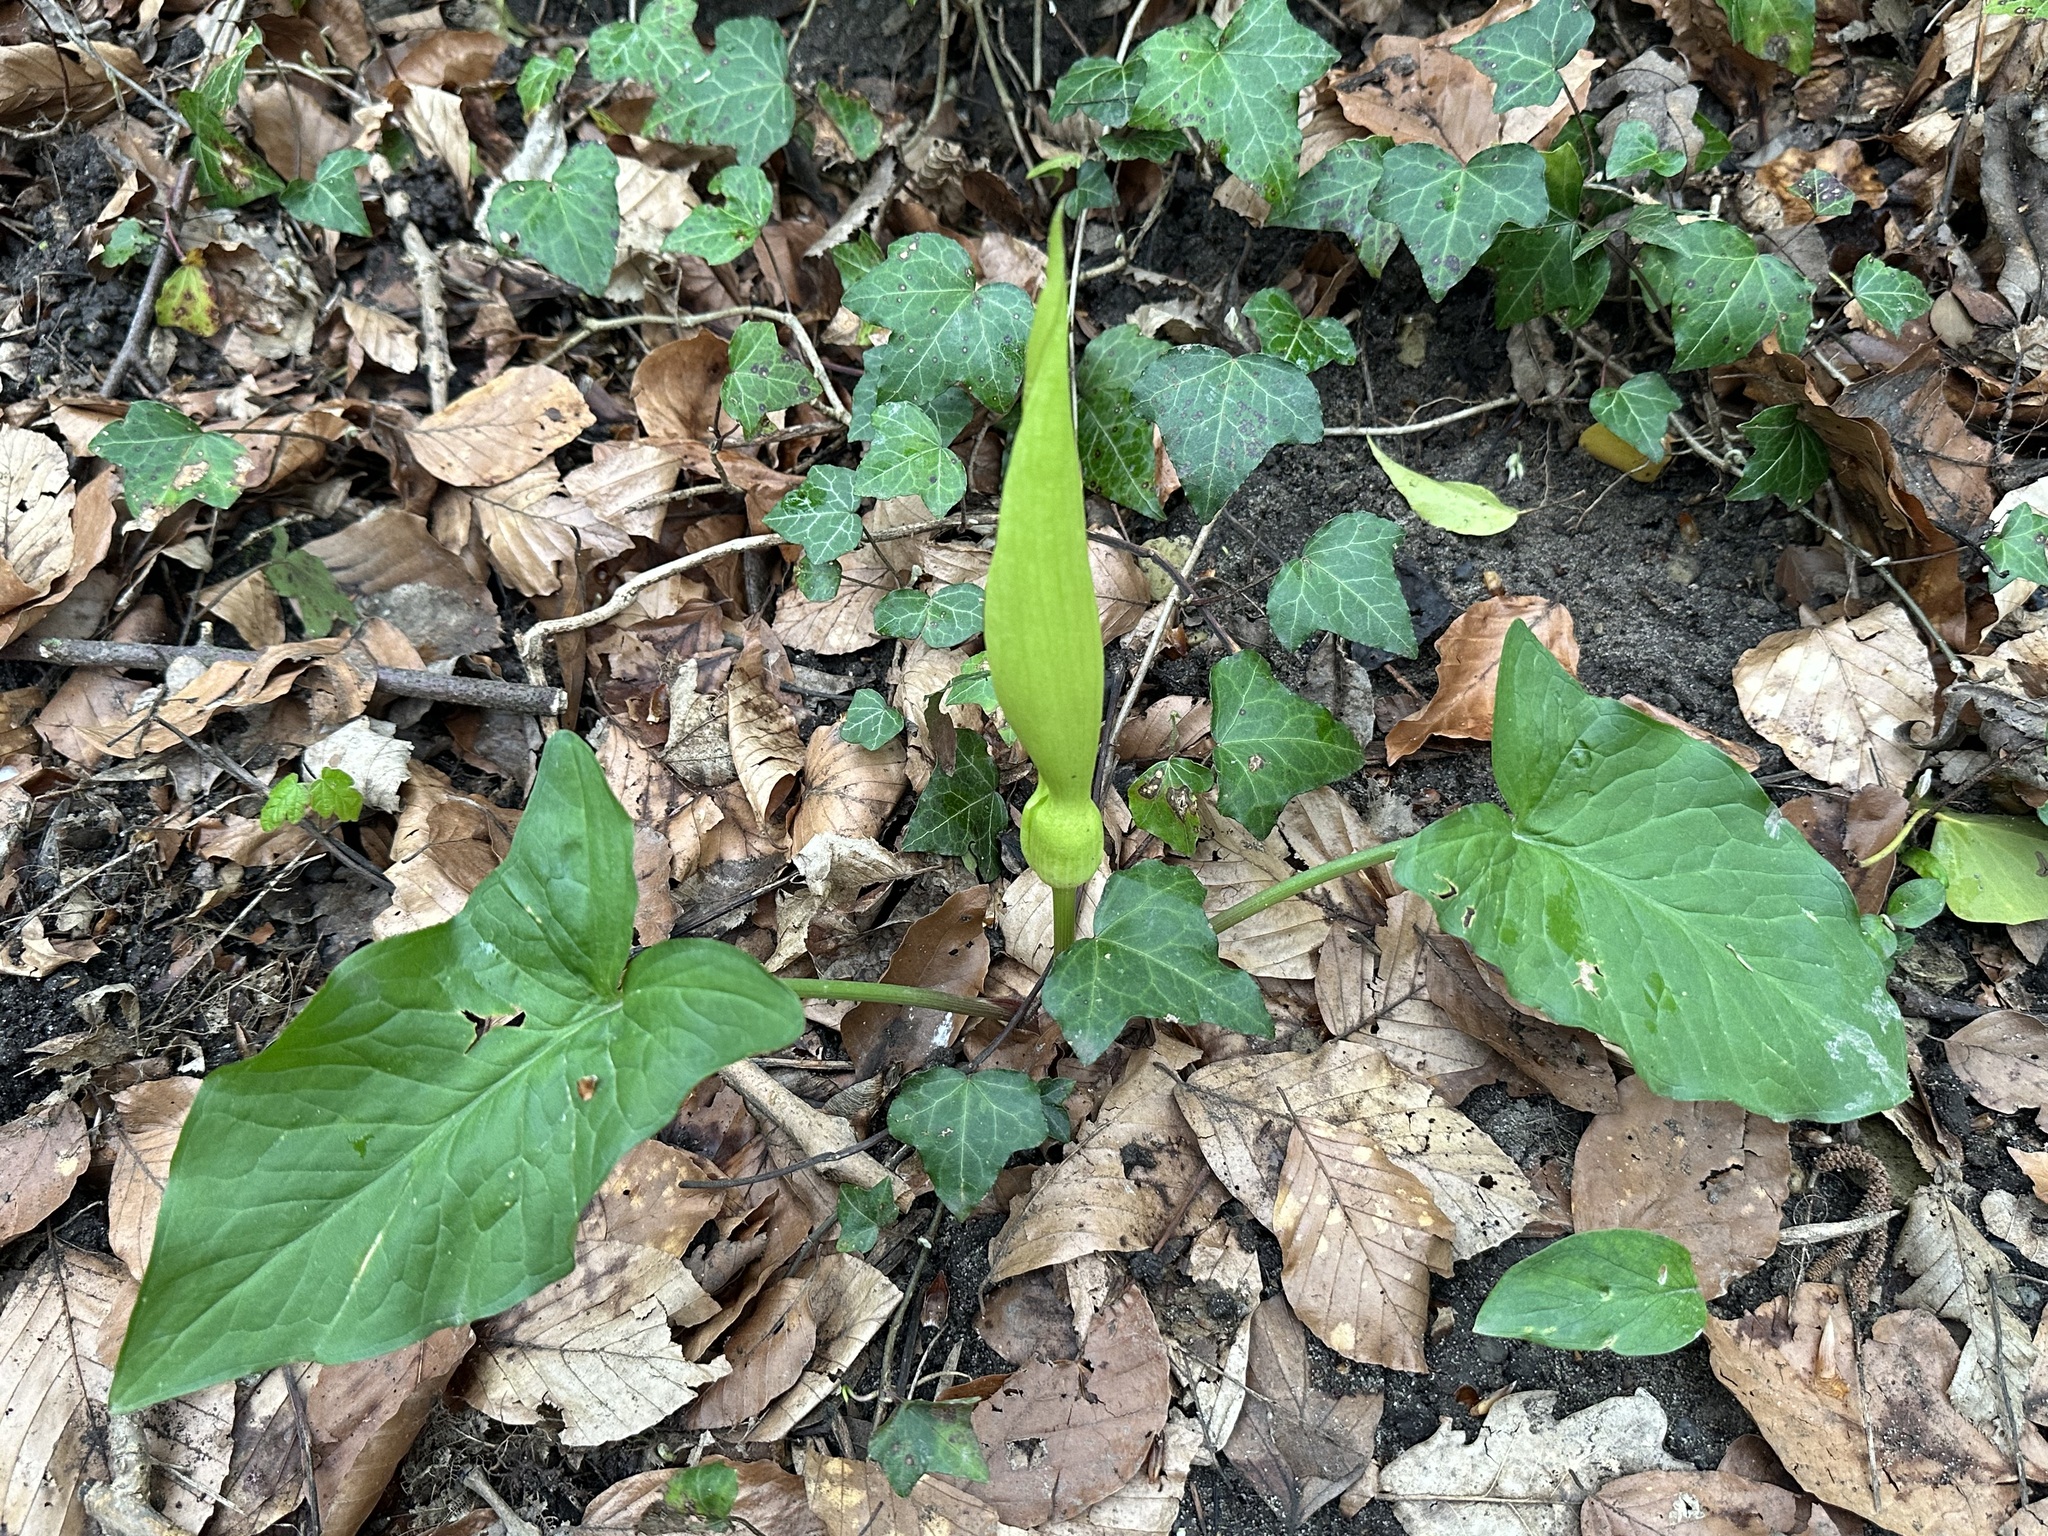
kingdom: Plantae
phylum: Tracheophyta
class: Liliopsida
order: Alismatales
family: Araceae
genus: Arum
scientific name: Arum maculatum
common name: Lords-and-ladies
